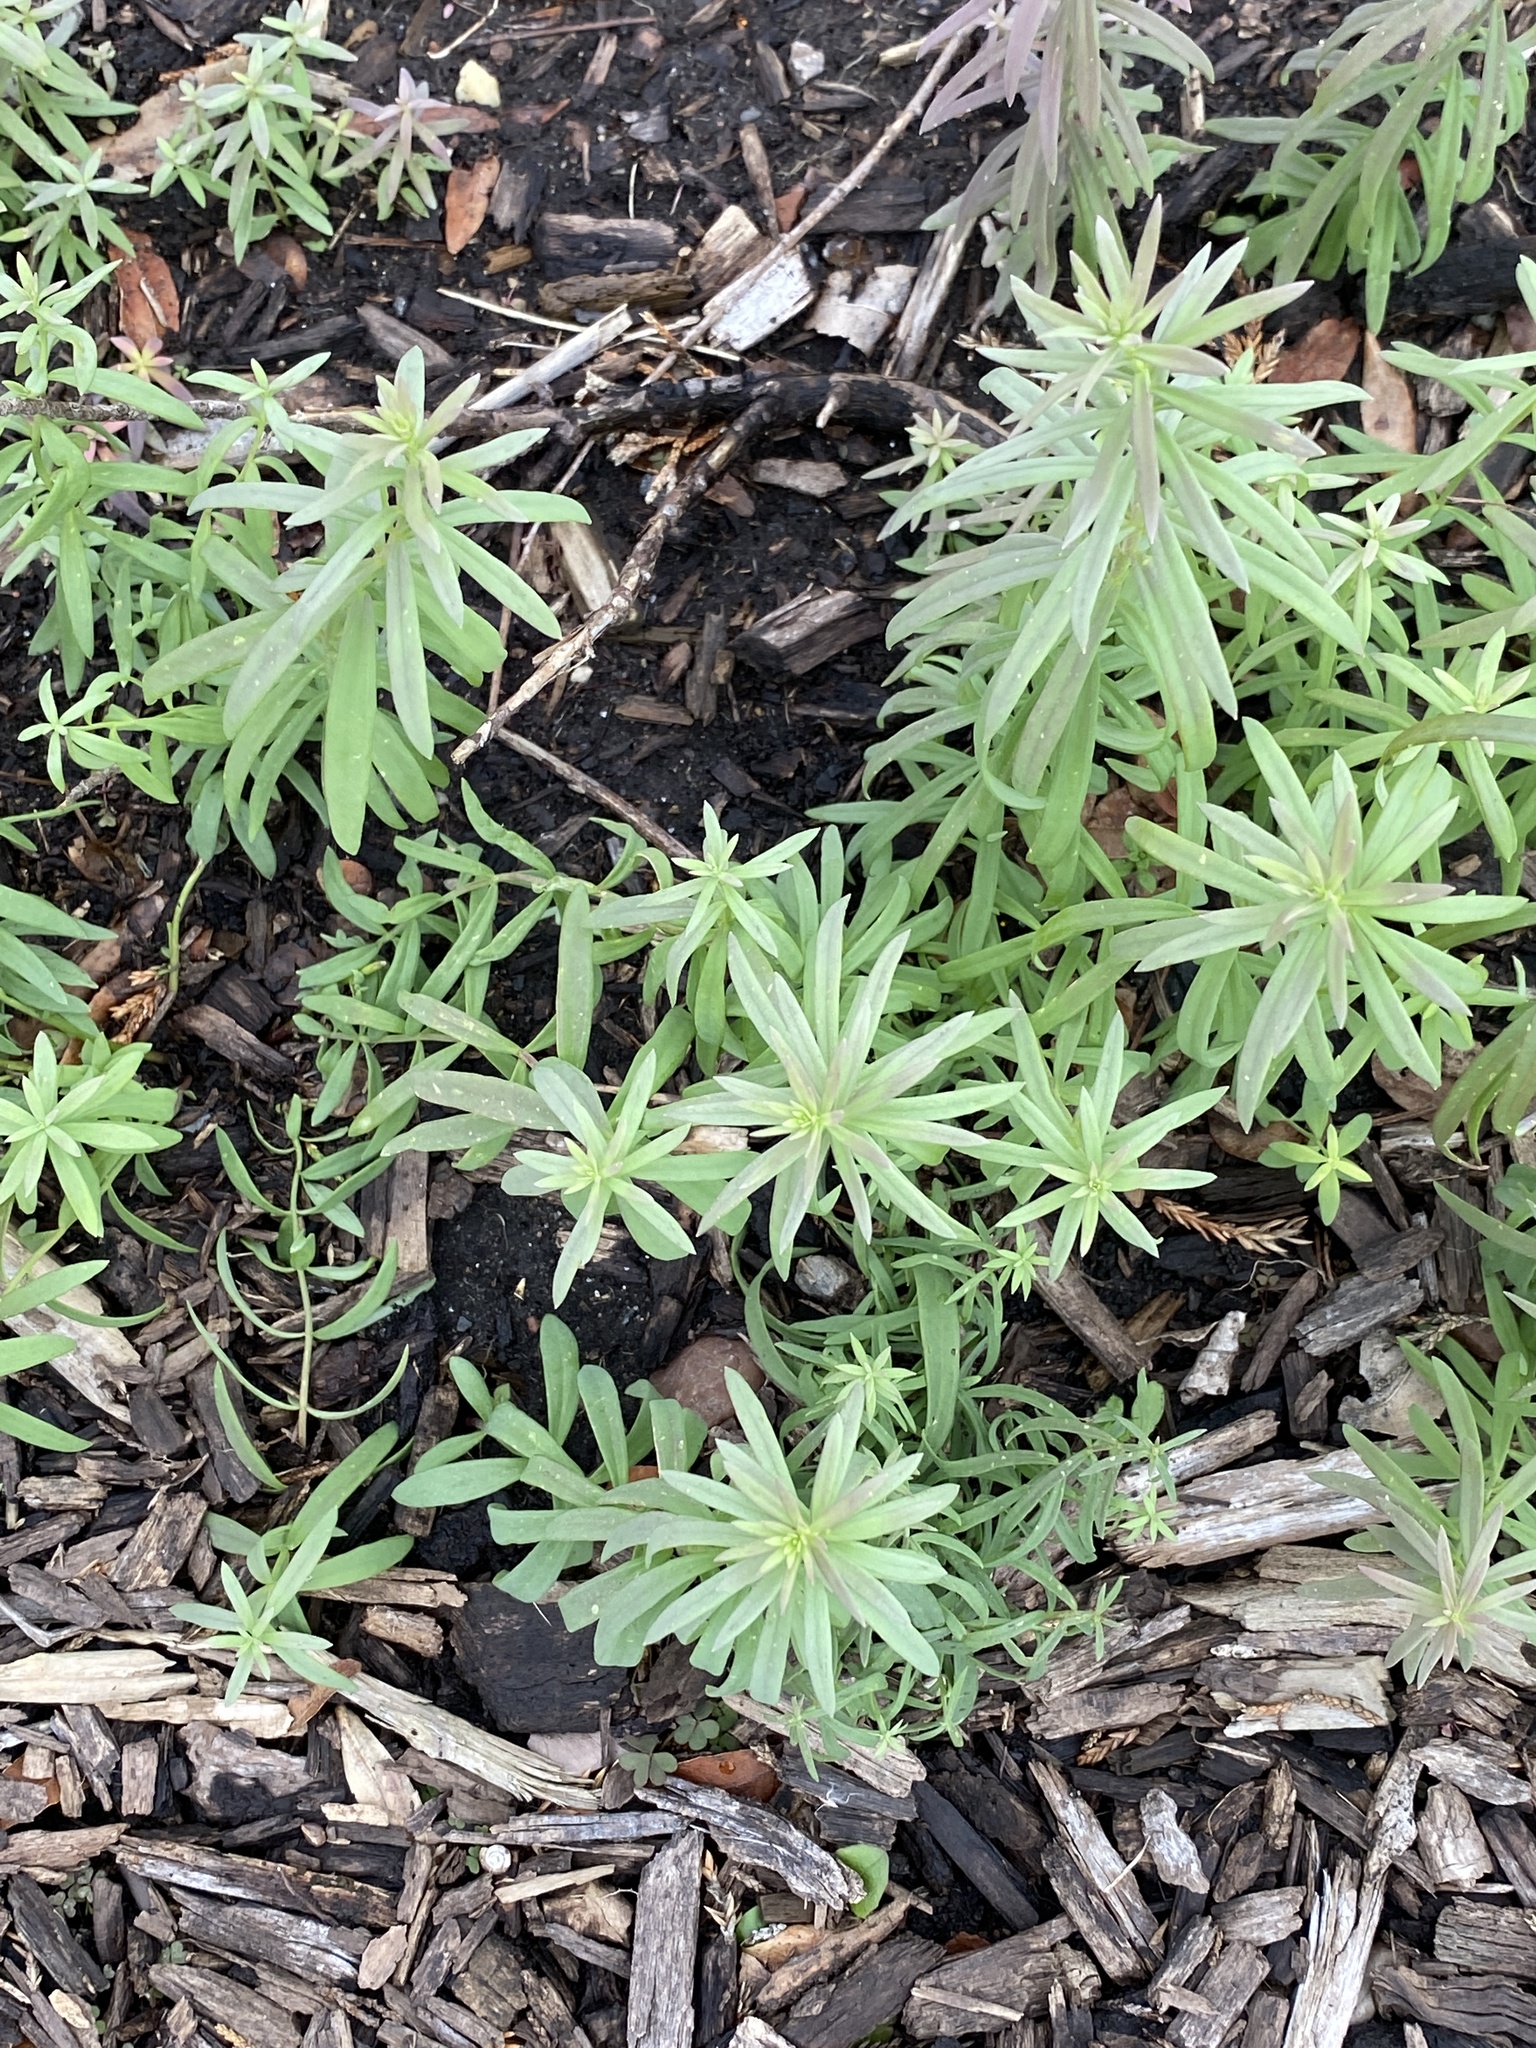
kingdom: Plantae
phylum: Tracheophyta
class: Magnoliopsida
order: Lamiales
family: Plantaginaceae
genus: Linaria
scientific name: Linaria vulgaris
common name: Butter and eggs
